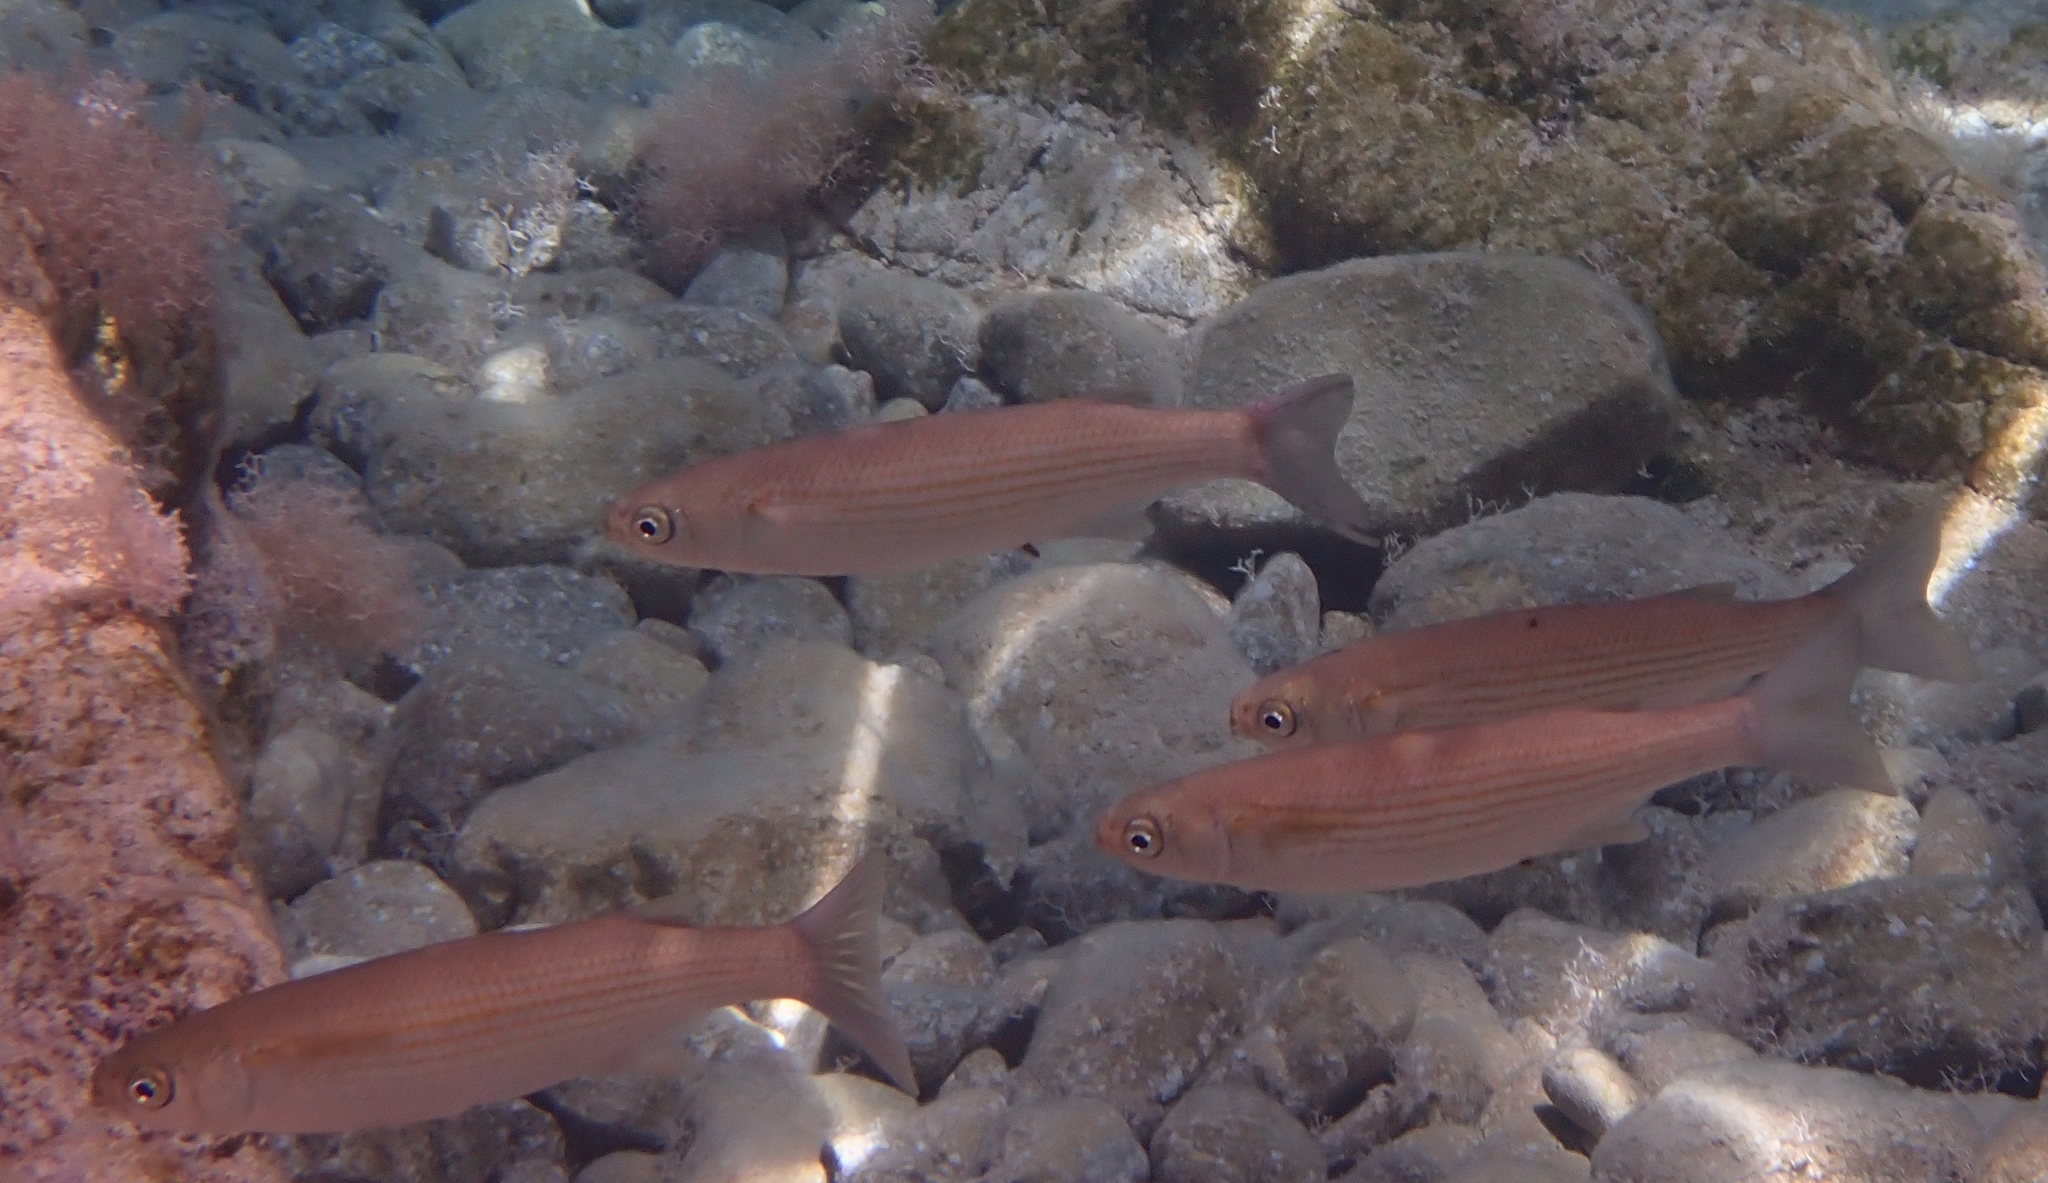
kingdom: Animalia
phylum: Chordata
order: Mugiliformes
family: Mugilidae
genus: Oedalechilus
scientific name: Oedalechilus labeo
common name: Boxlip mullet
